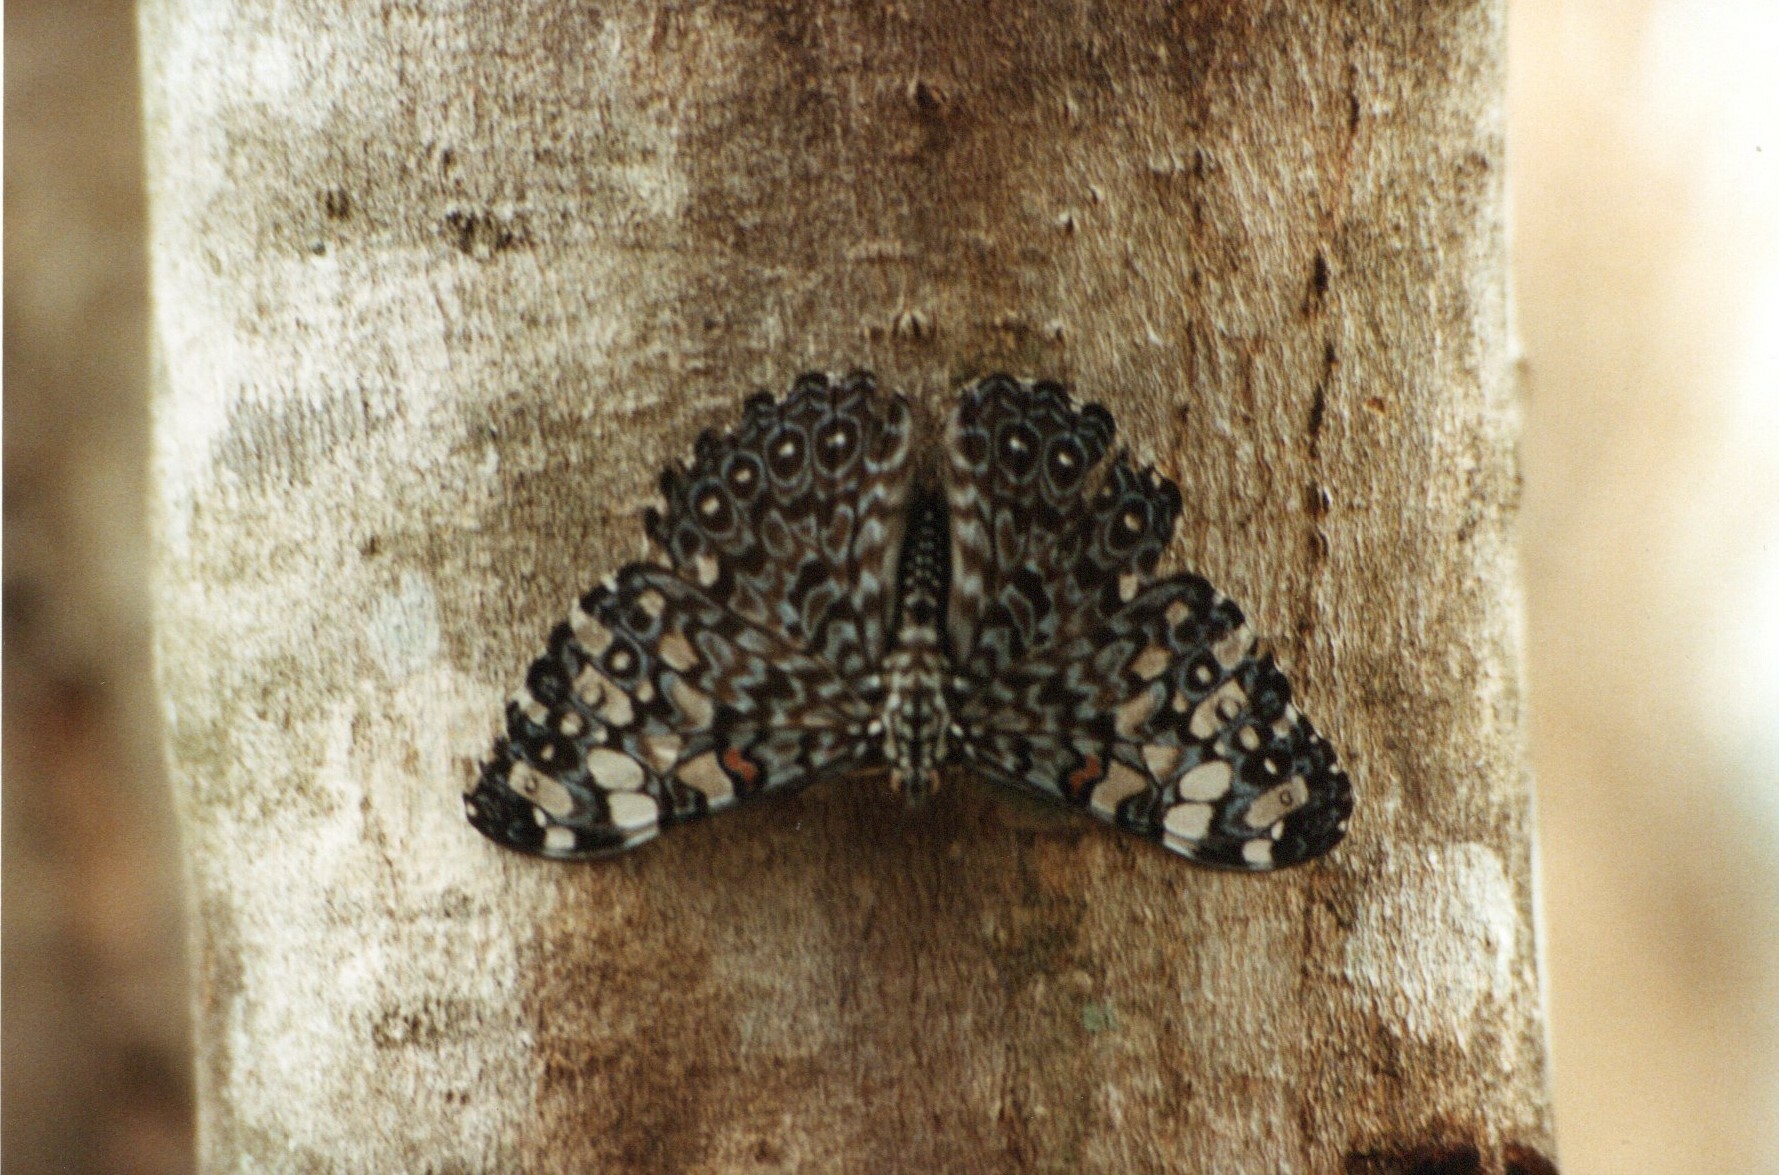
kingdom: Animalia
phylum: Arthropoda
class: Insecta
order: Lepidoptera
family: Nymphalidae
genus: Hamadryas
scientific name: Hamadryas feronia
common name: Variable cracker
